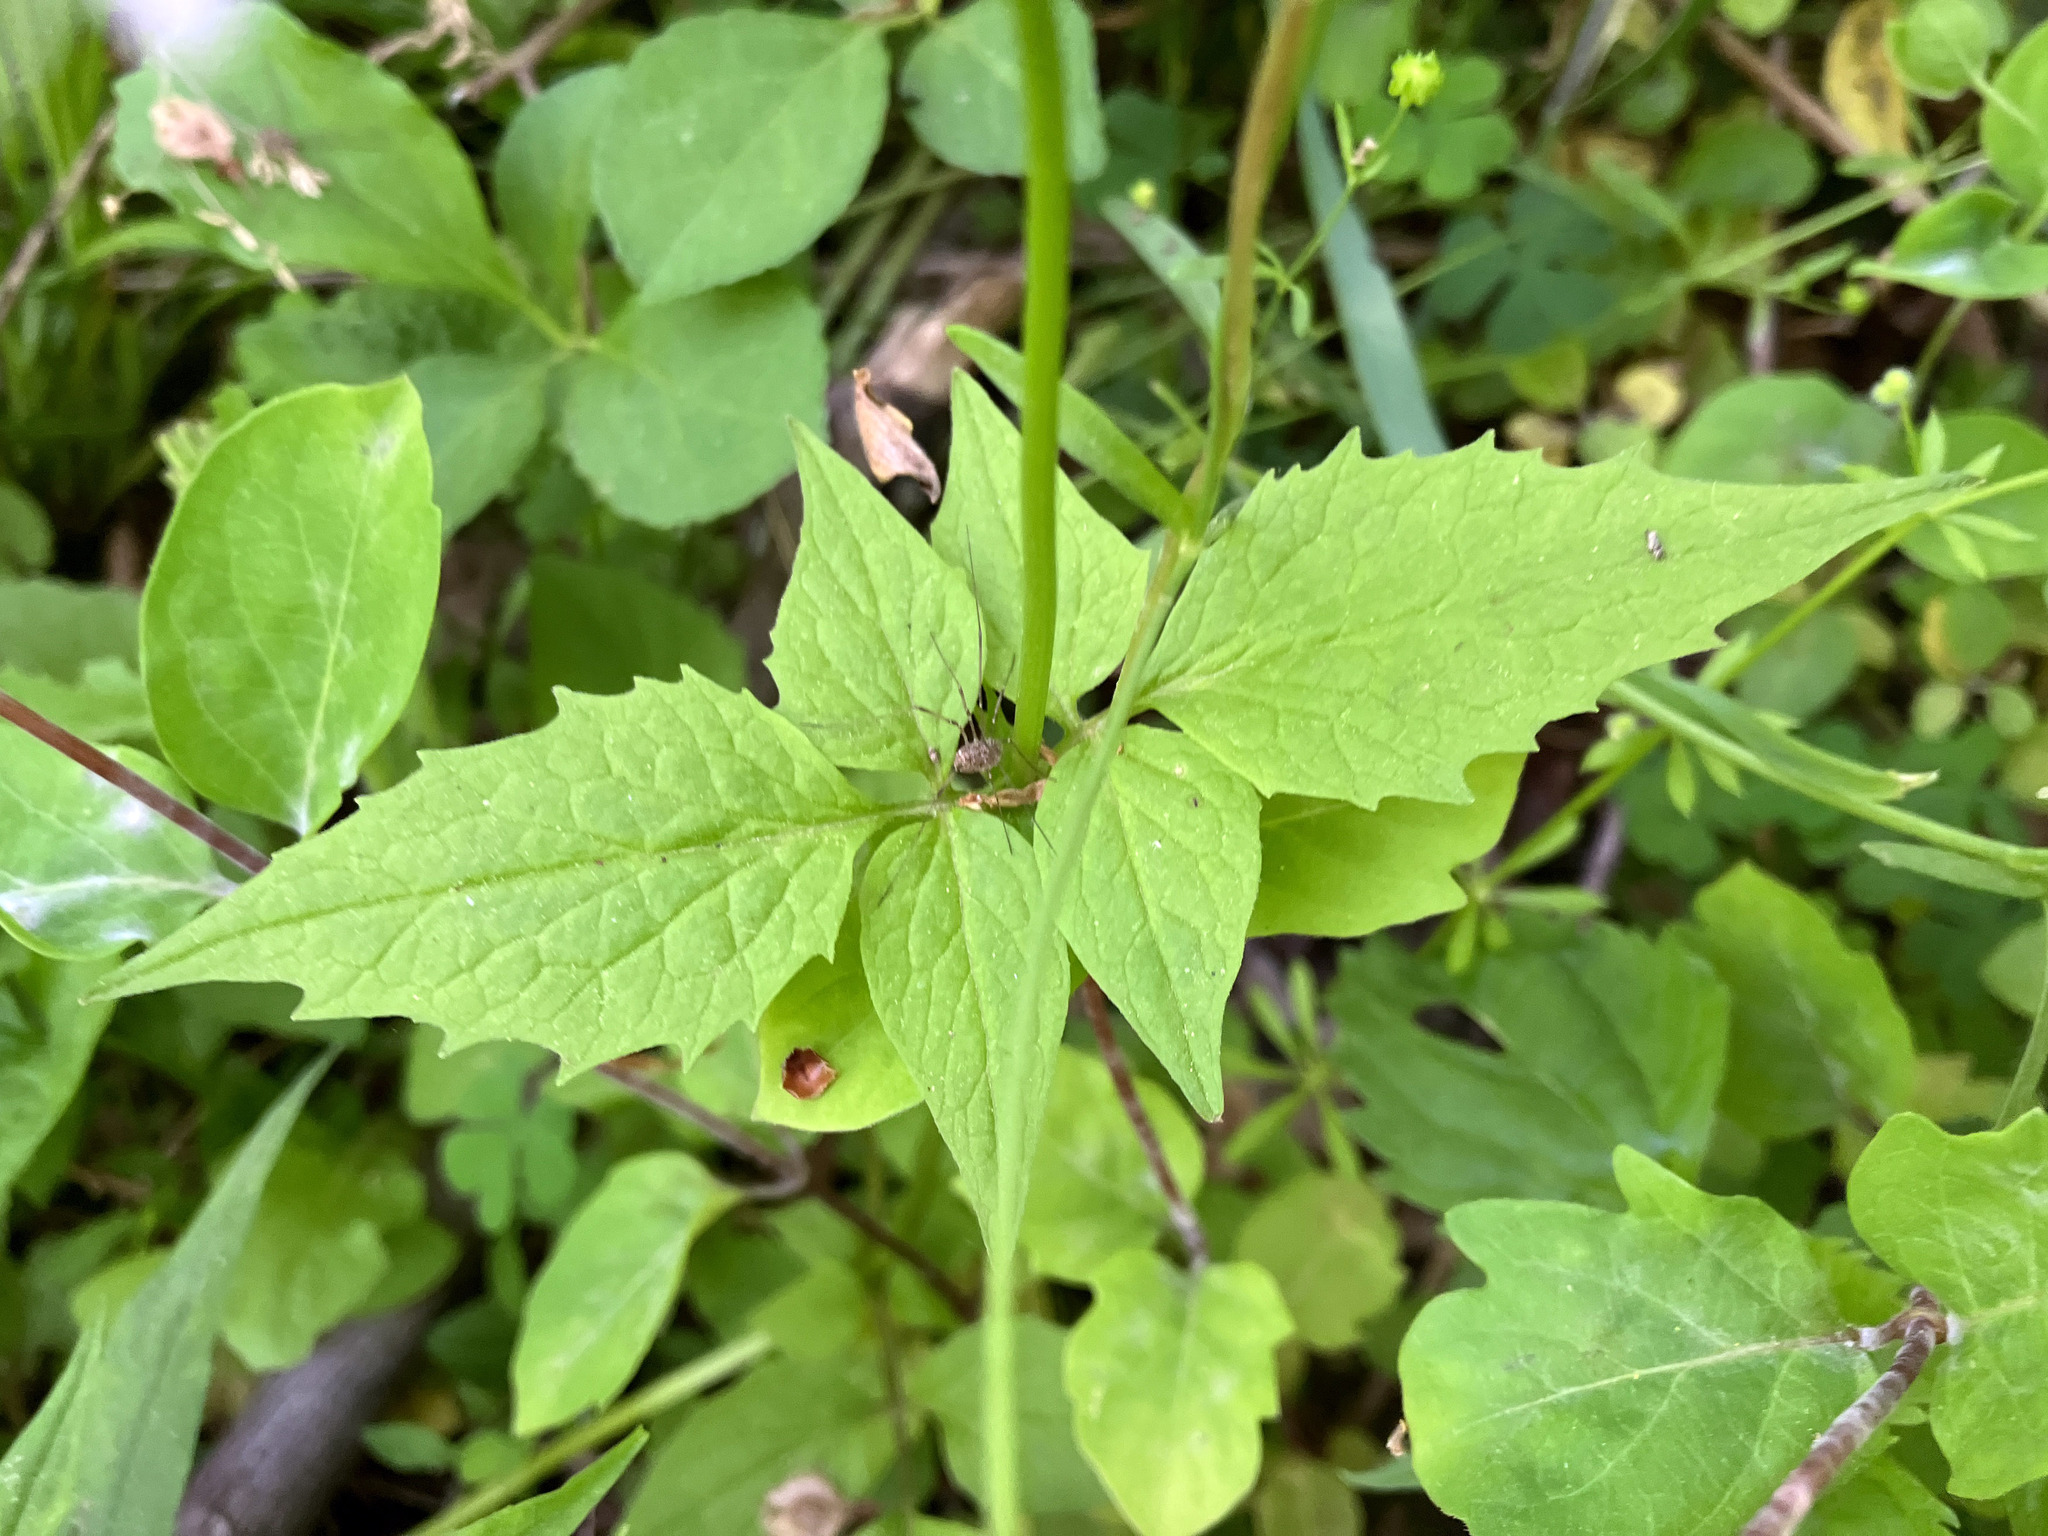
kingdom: Plantae
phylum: Tracheophyta
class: Magnoliopsida
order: Dipsacales
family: Caprifoliaceae
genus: Valeriana
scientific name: Valeriana pauciflora
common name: Long-tube valeriana
